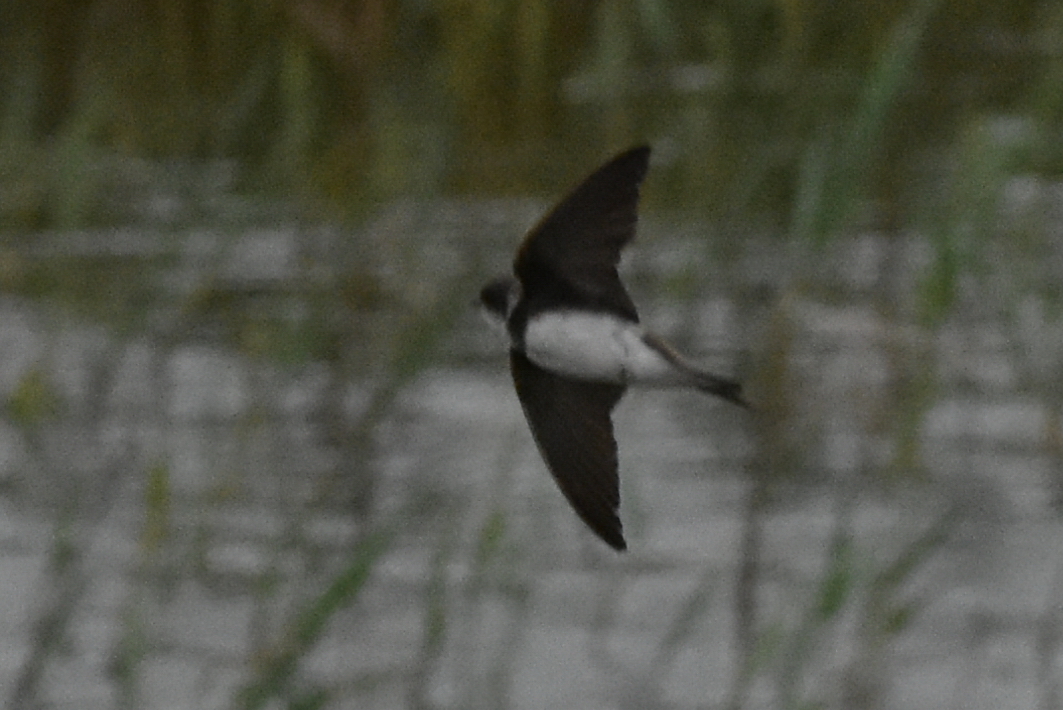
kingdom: Animalia
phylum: Chordata
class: Aves
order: Passeriformes
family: Hirundinidae
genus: Riparia
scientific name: Riparia riparia
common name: Sand martin
